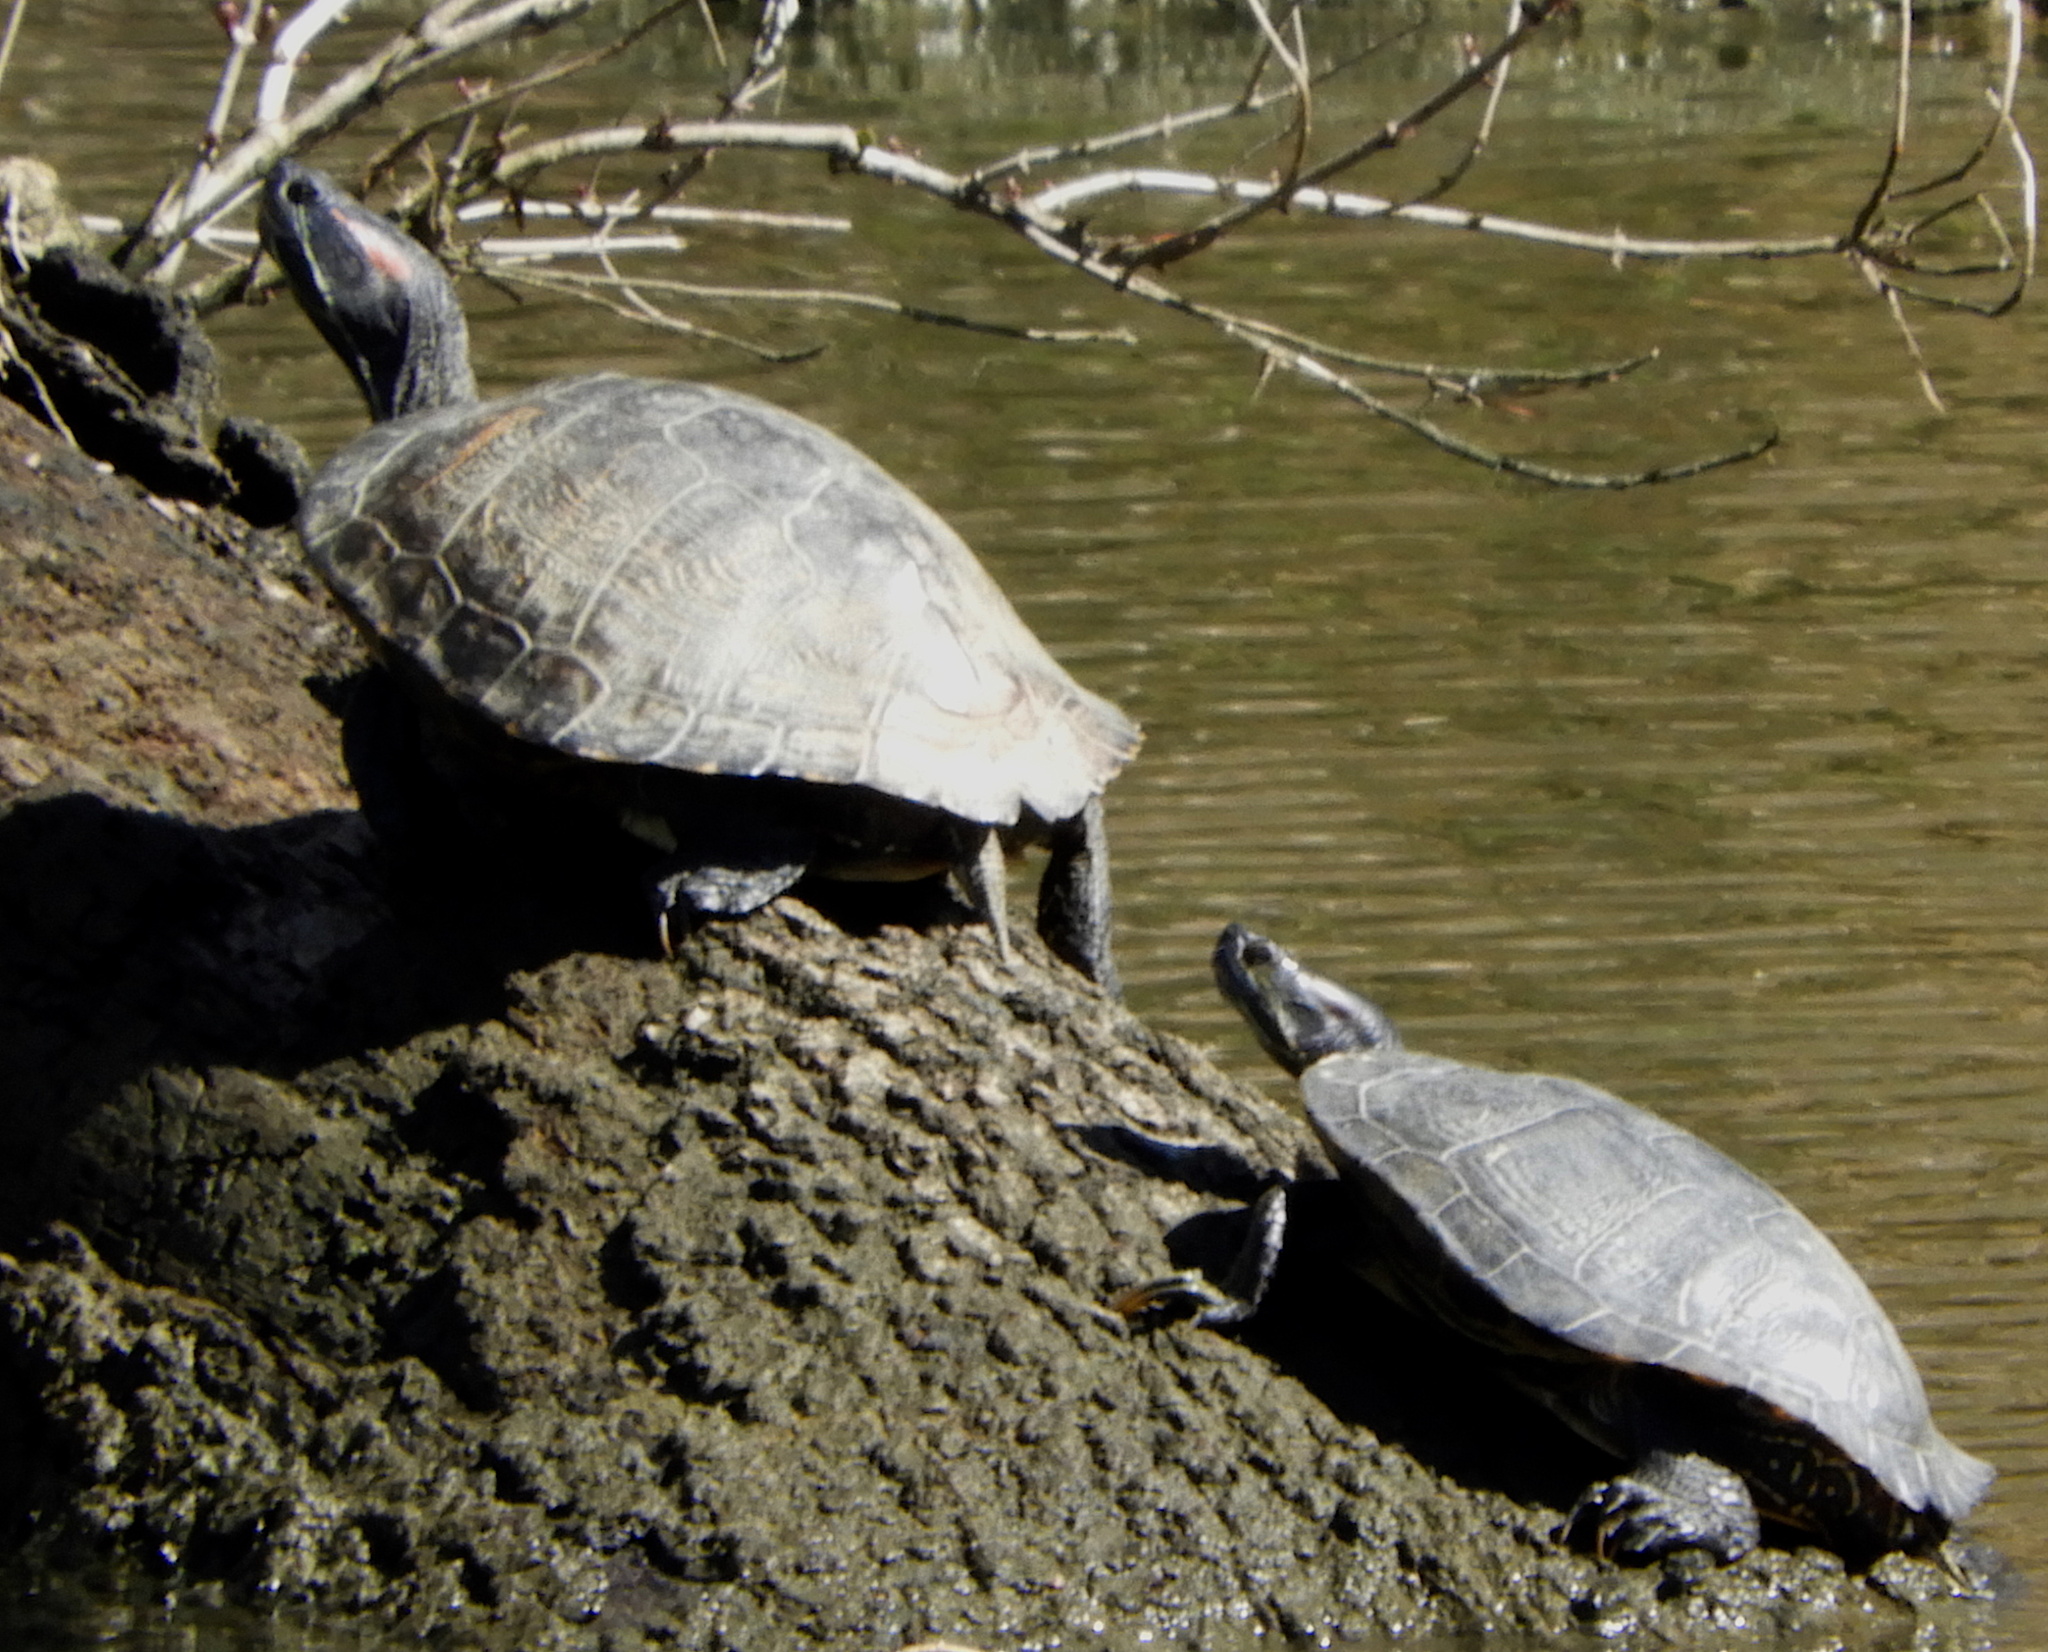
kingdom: Animalia
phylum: Chordata
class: Testudines
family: Emydidae
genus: Trachemys
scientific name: Trachemys scripta
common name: Slider
